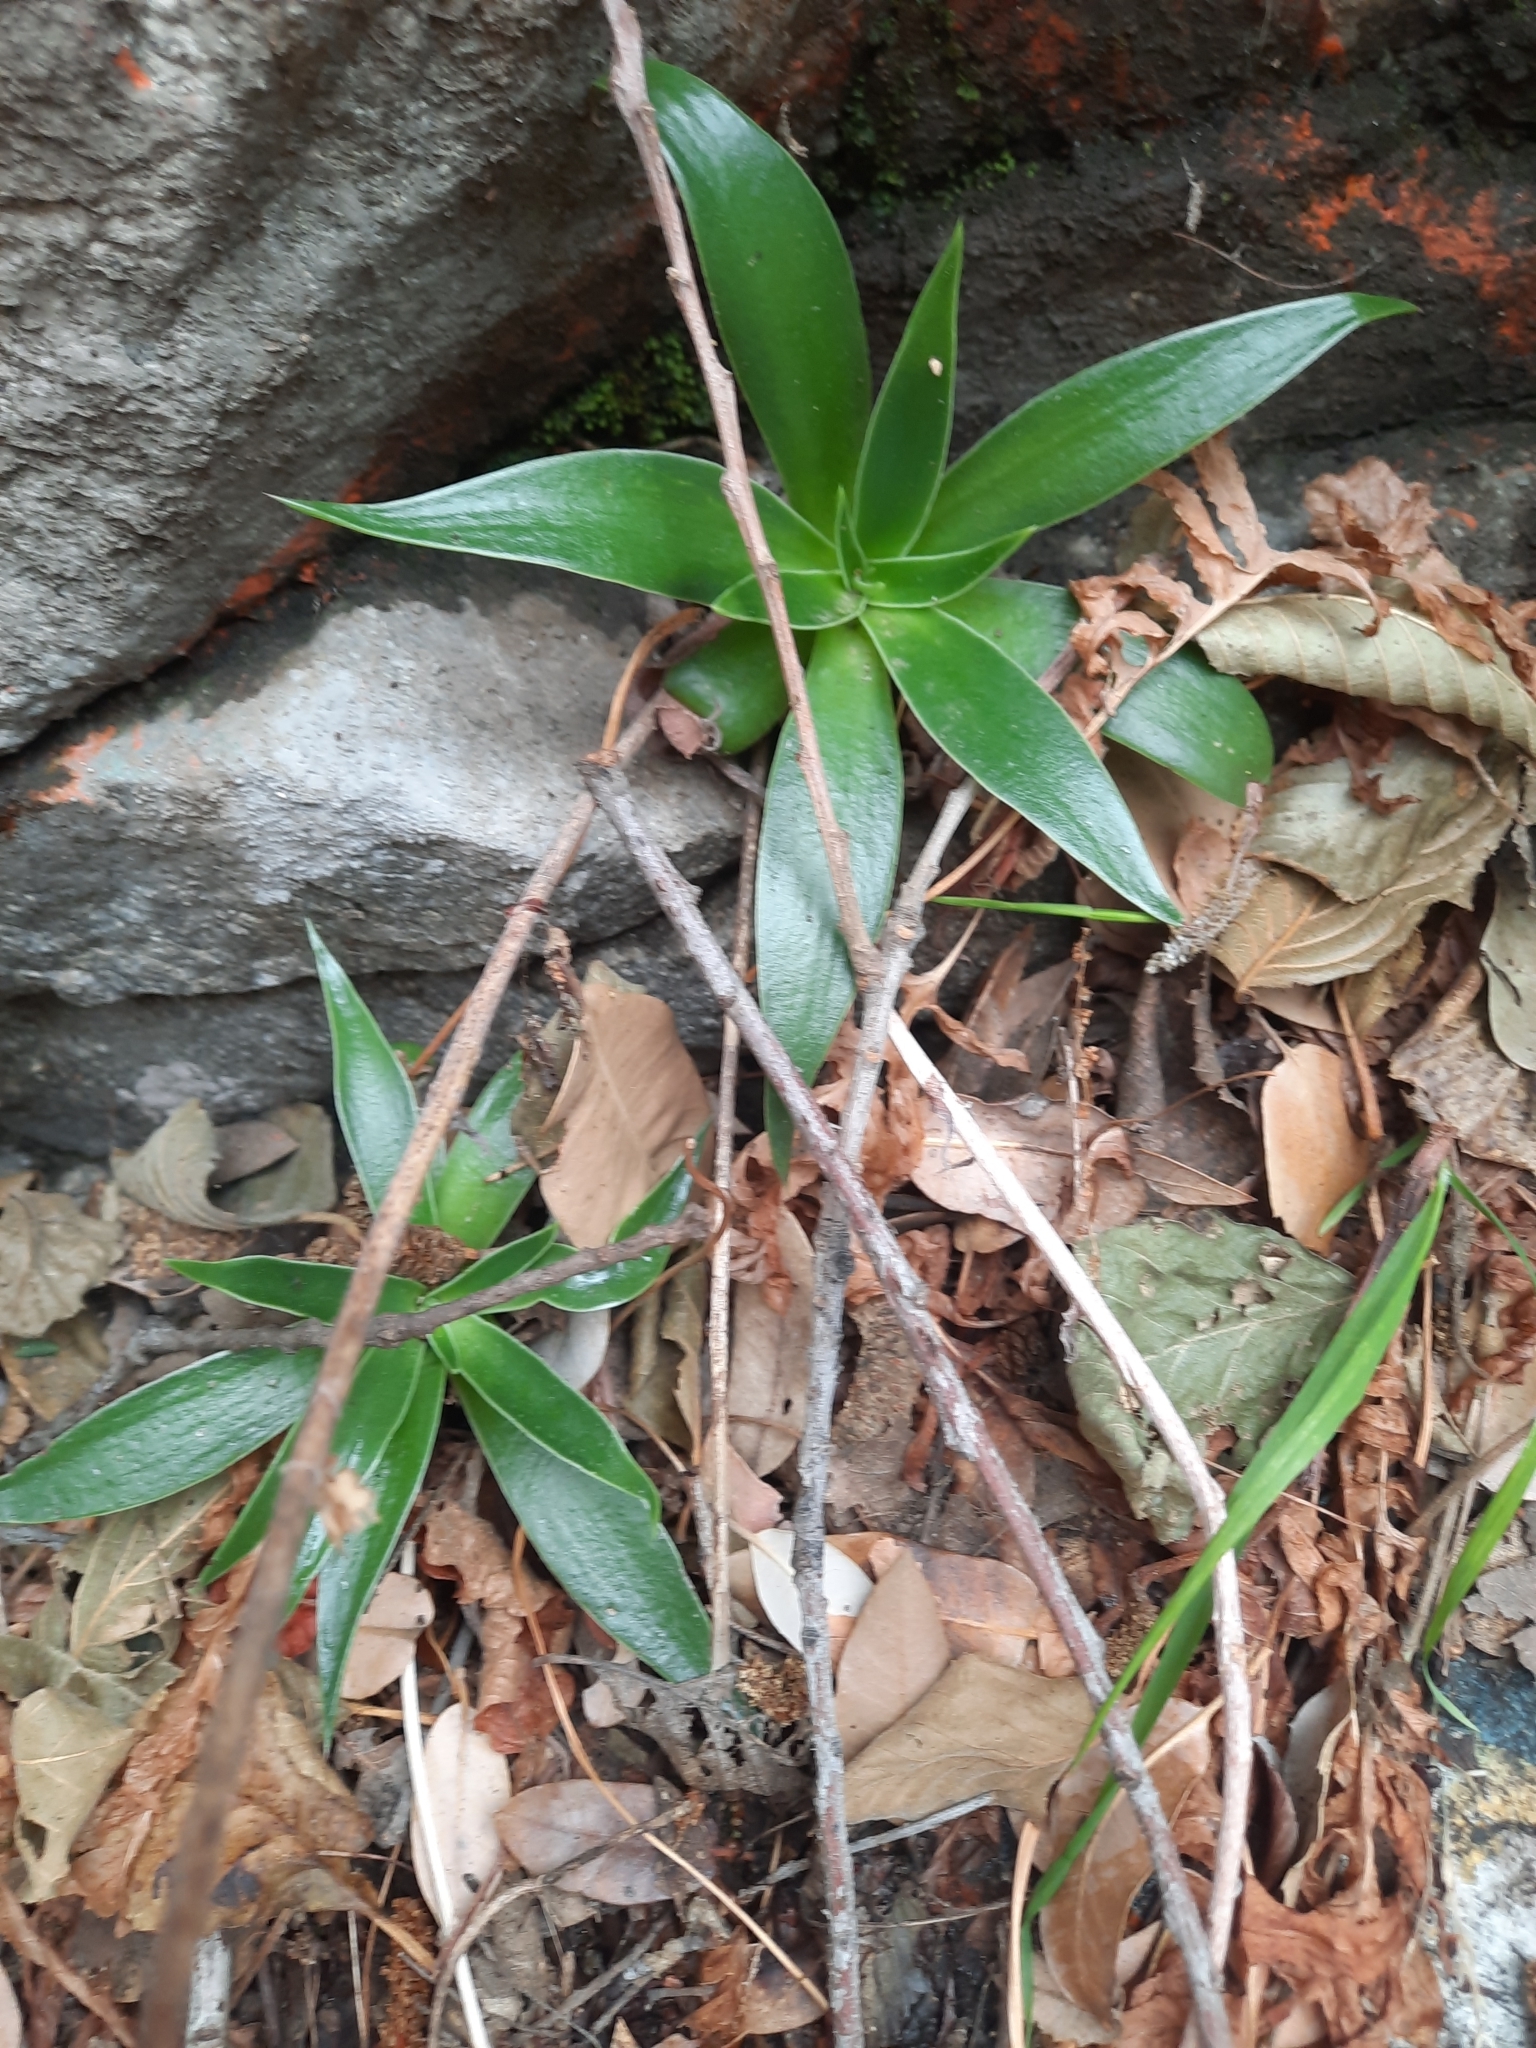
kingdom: Plantae
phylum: Tracheophyta
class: Magnoliopsida
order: Saxifragales
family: Crassulaceae
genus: Dudleya
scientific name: Dudleya lanceolata
